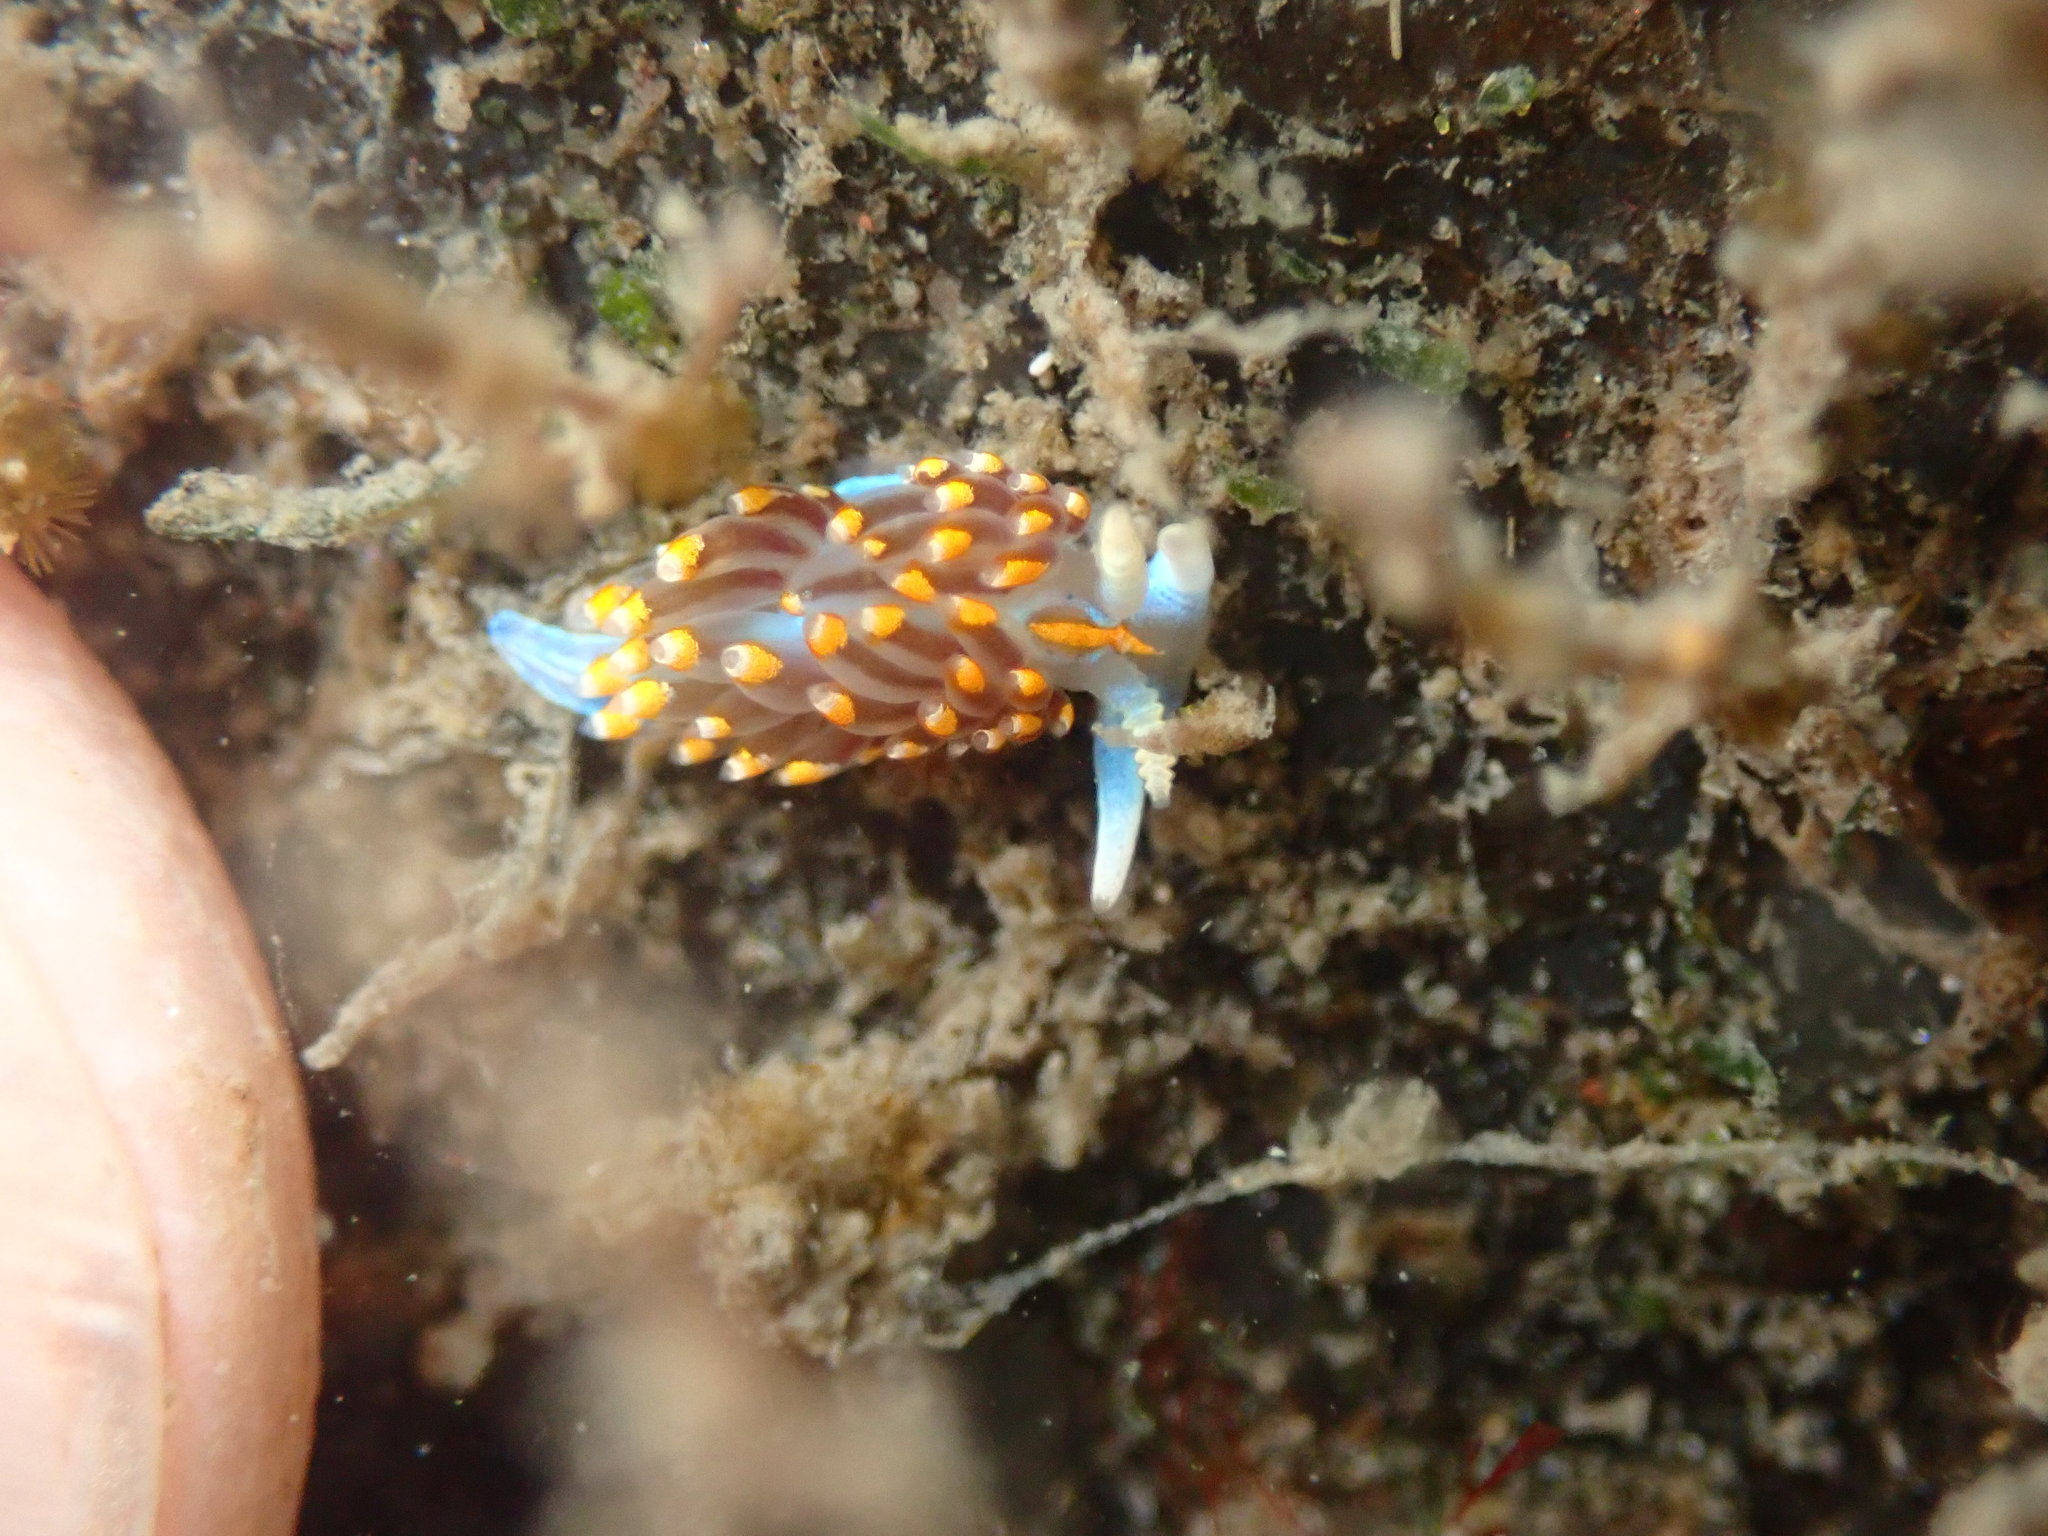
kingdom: Animalia
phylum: Mollusca
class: Gastropoda
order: Nudibranchia
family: Myrrhinidae
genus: Hermissenda
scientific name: Hermissenda opalescens
